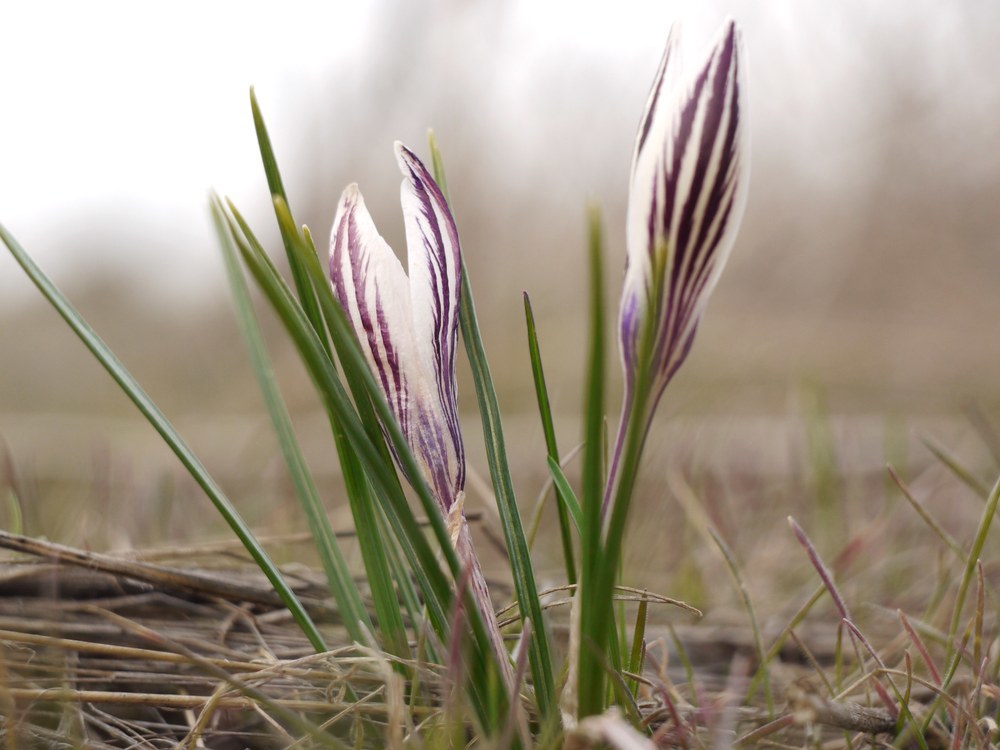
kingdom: Plantae
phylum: Tracheophyta
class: Liliopsida
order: Asparagales
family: Iridaceae
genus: Crocus
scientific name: Crocus reticulatus
